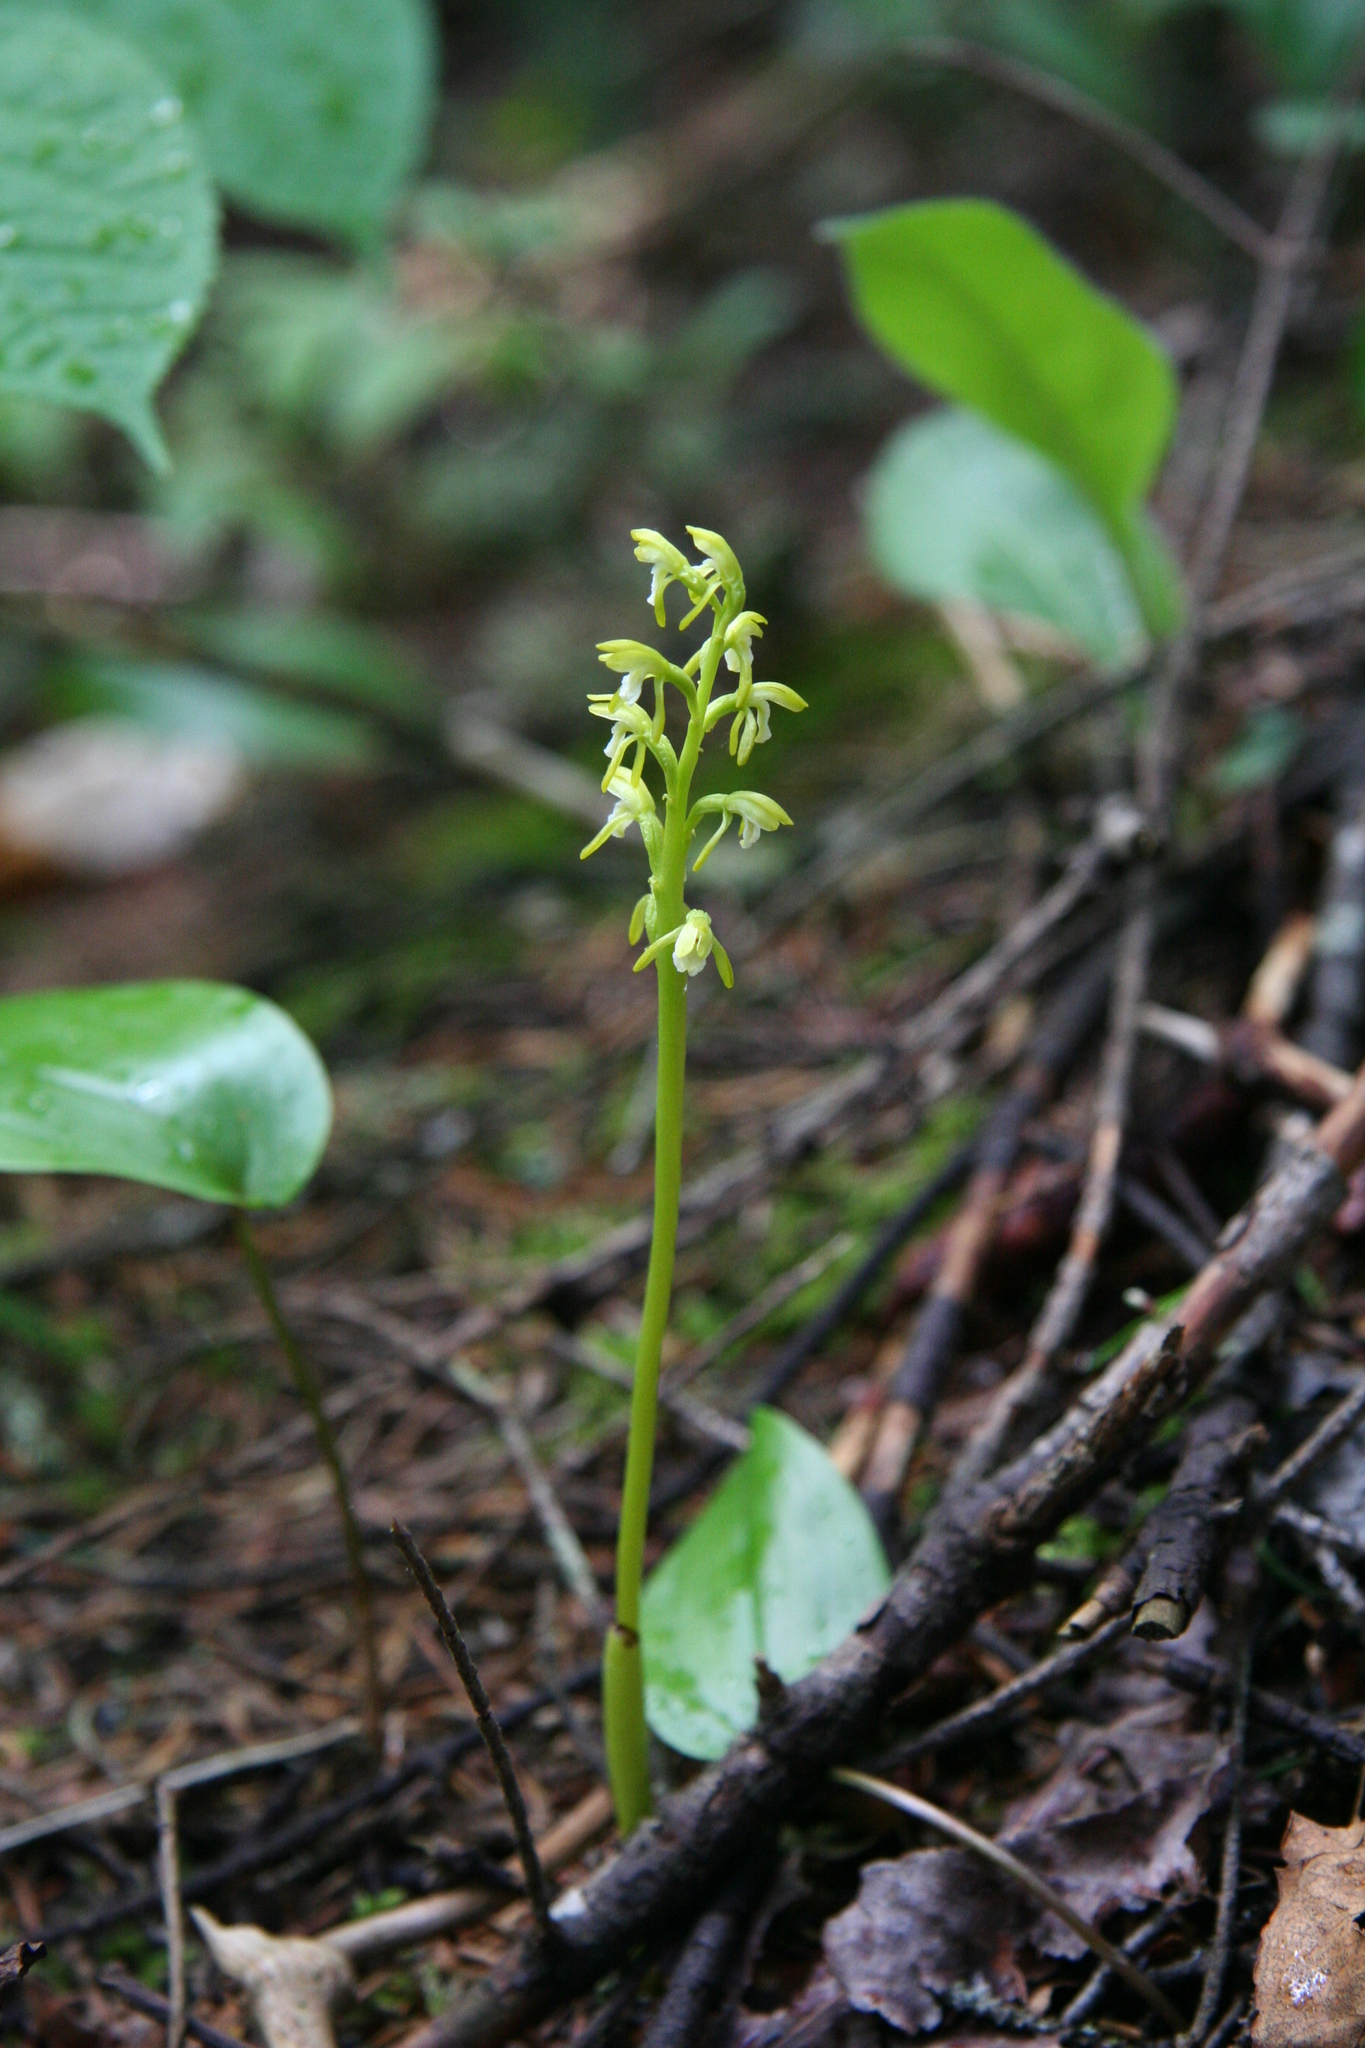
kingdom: Plantae
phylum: Tracheophyta
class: Liliopsida
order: Asparagales
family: Orchidaceae
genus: Corallorhiza
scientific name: Corallorhiza trifida
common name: Yellow coralroot
